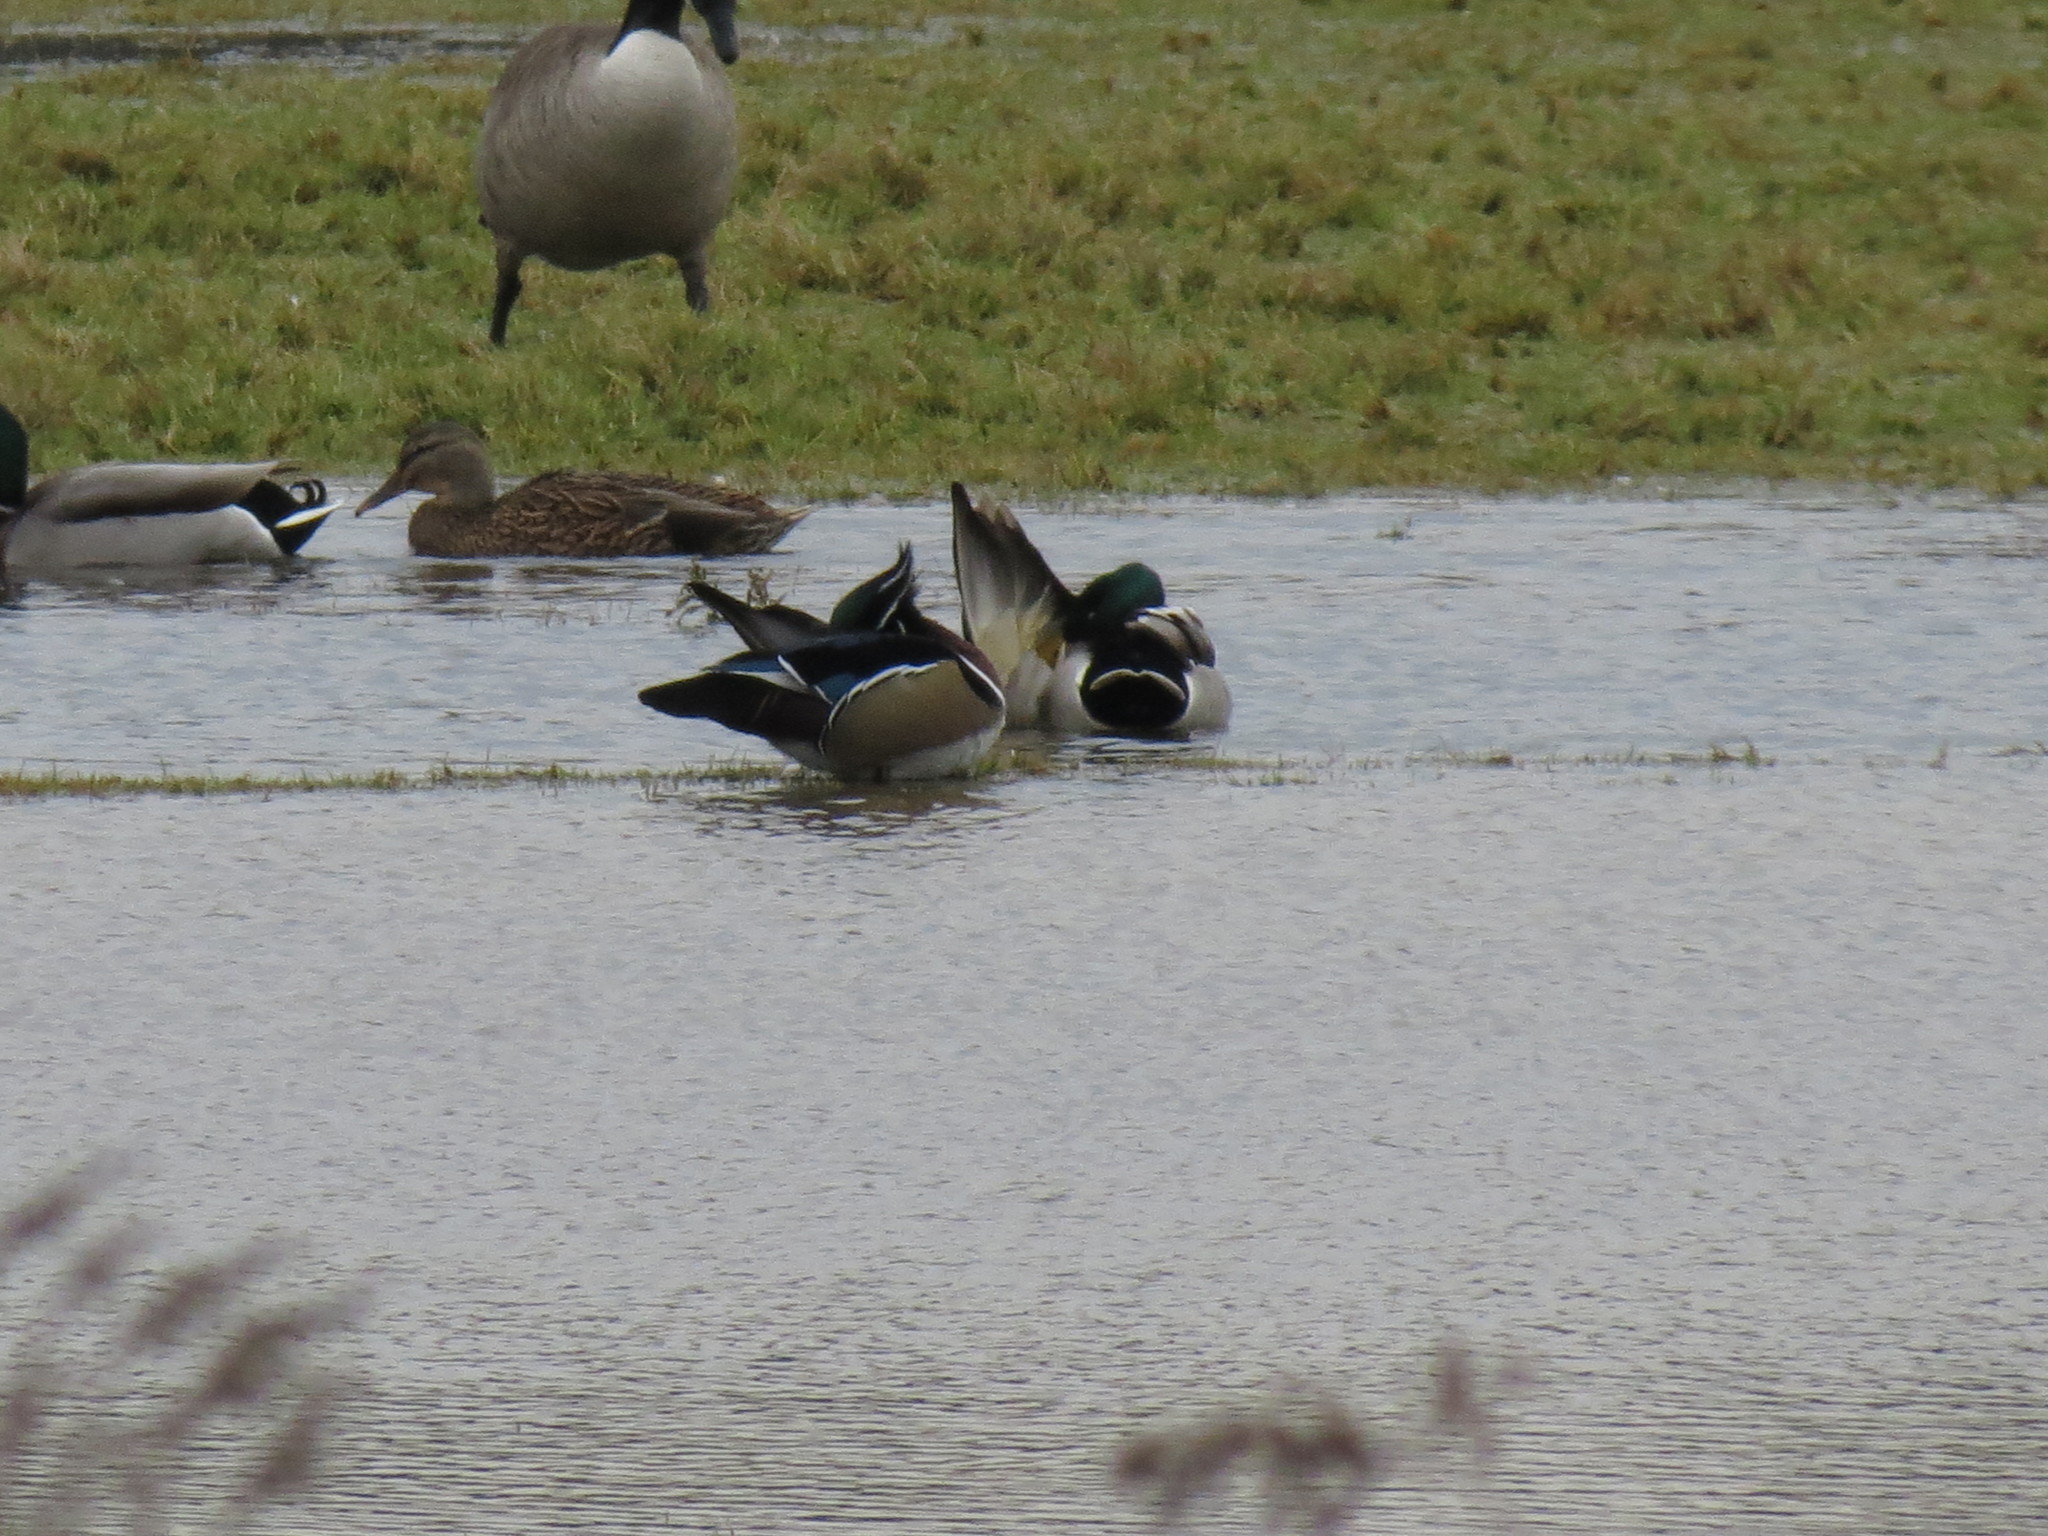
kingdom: Animalia
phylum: Chordata
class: Aves
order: Anseriformes
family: Anatidae
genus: Aix
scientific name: Aix sponsa
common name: Wood duck
